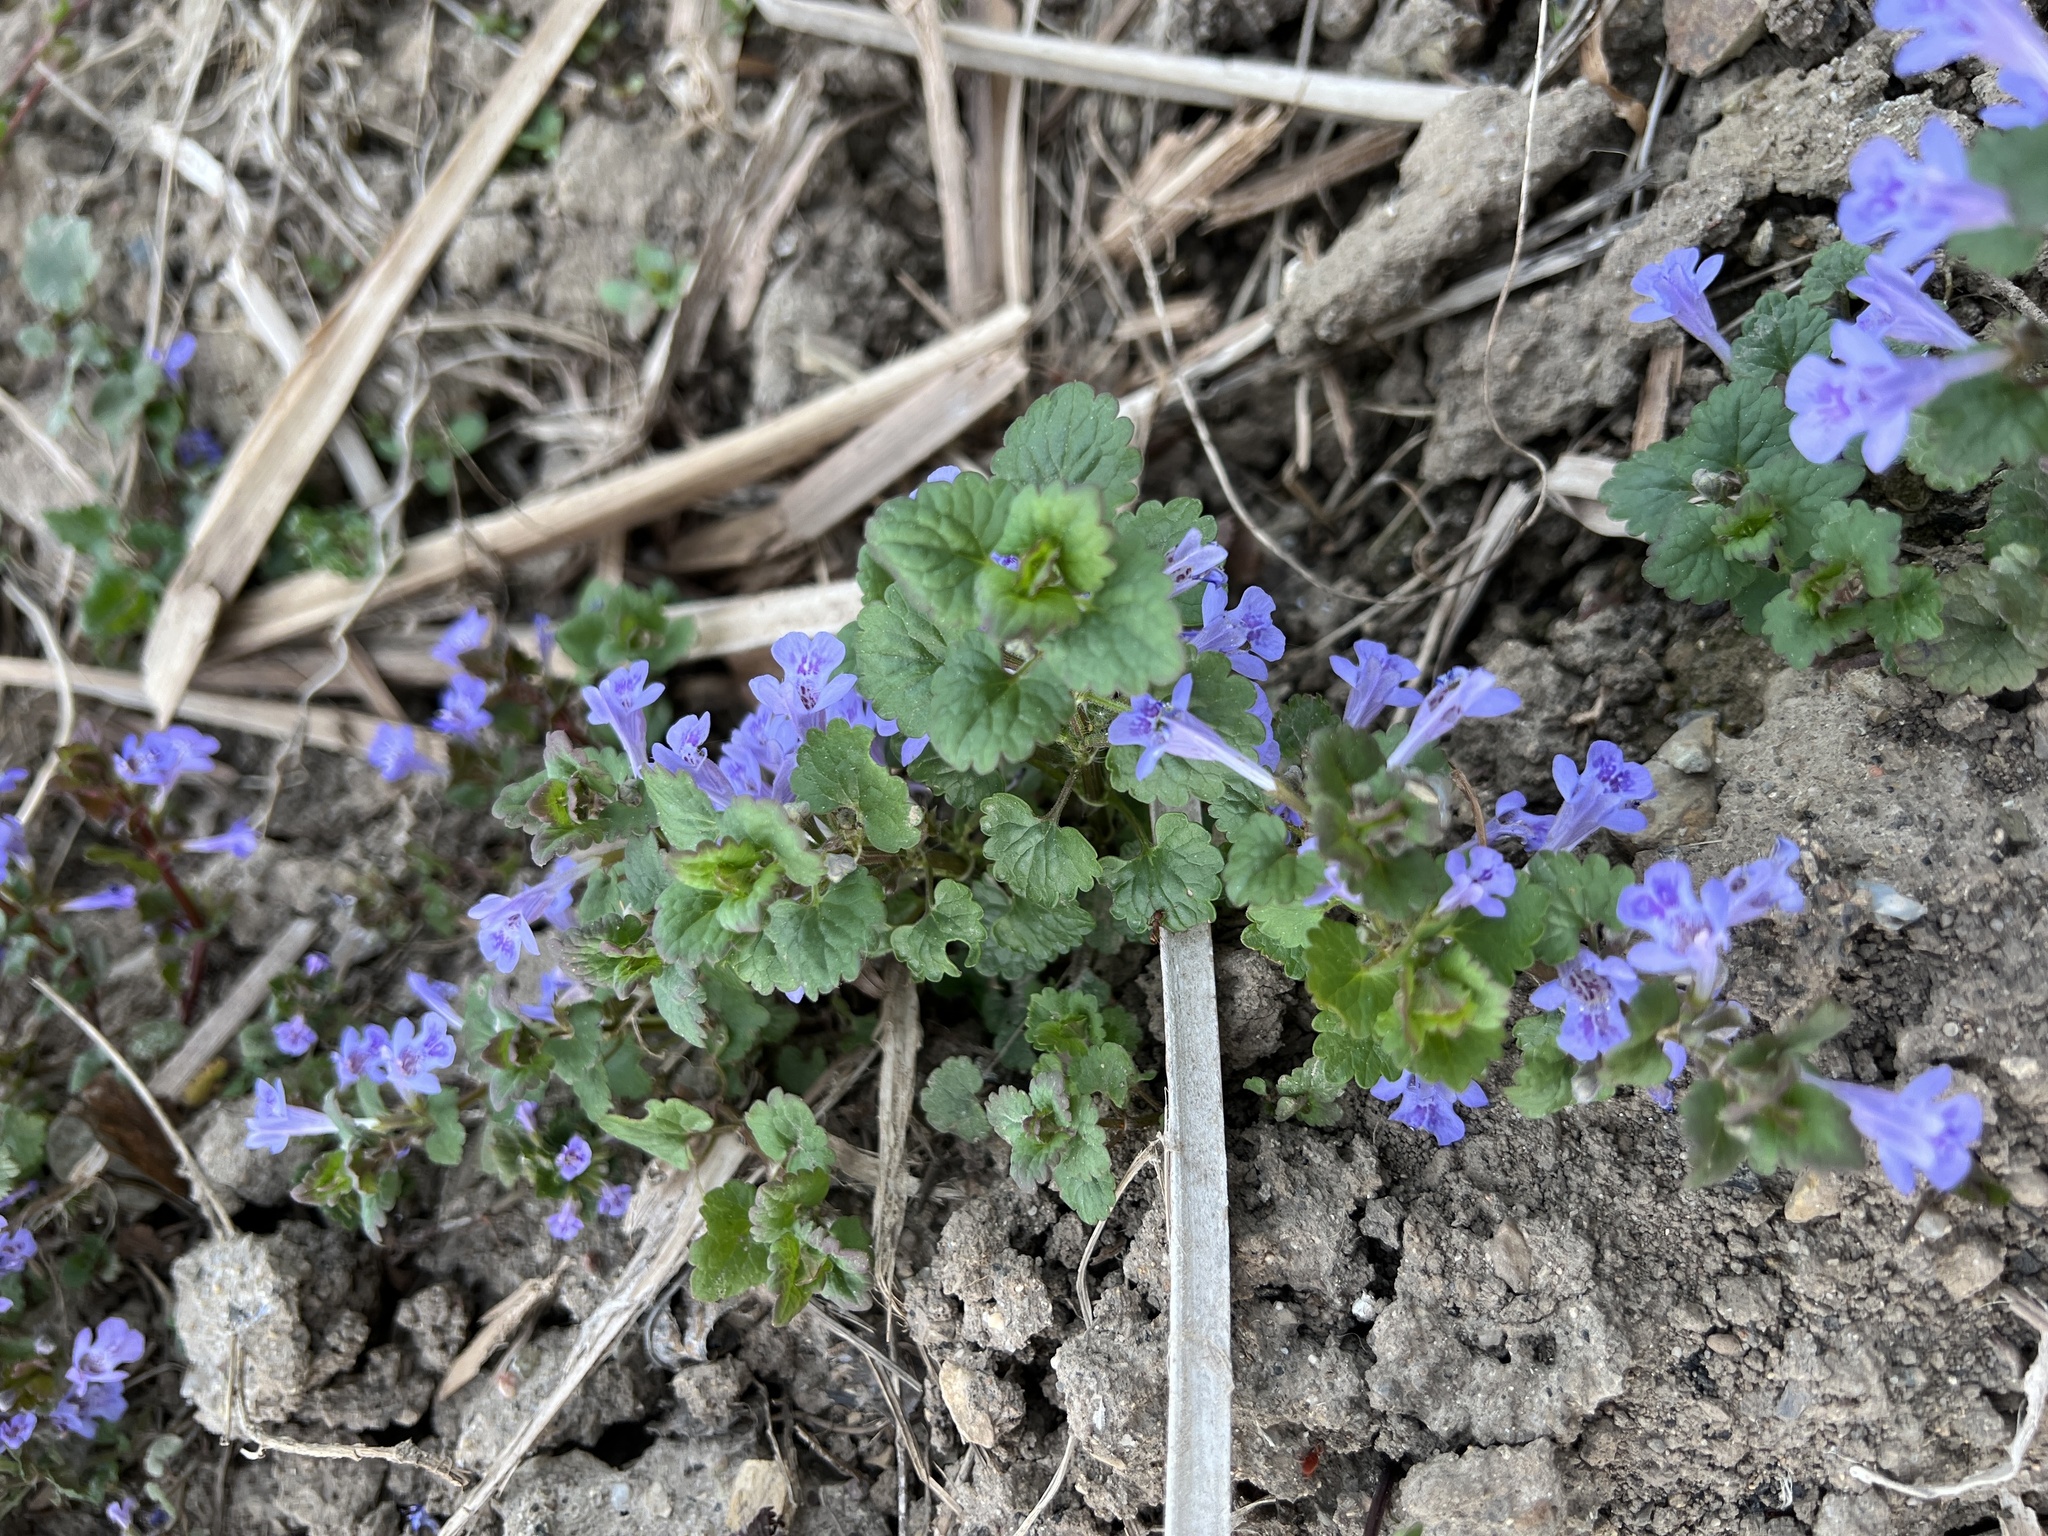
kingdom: Plantae
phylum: Tracheophyta
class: Magnoliopsida
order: Lamiales
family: Lamiaceae
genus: Glechoma
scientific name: Glechoma hederacea
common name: Ground ivy
